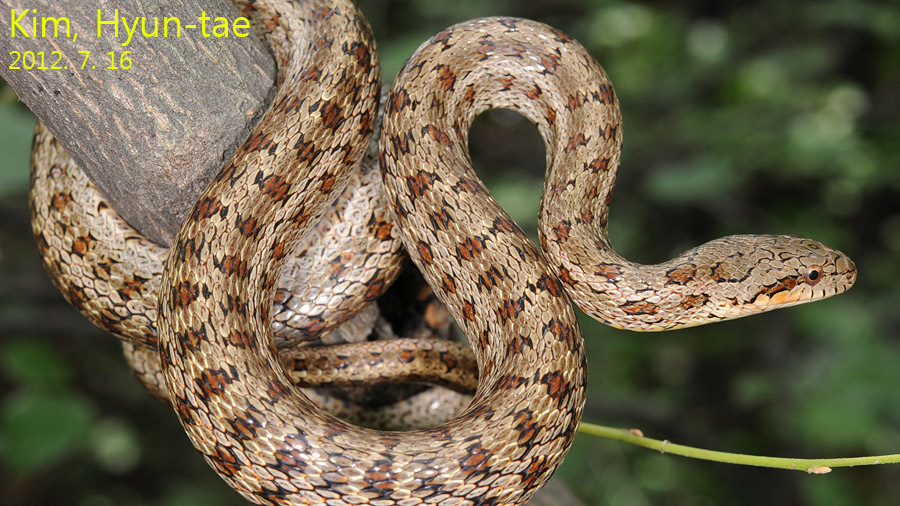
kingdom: Animalia
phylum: Chordata
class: Squamata
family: Colubridae
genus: Elaphe
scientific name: Elaphe dione
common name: Dione ratsnake
